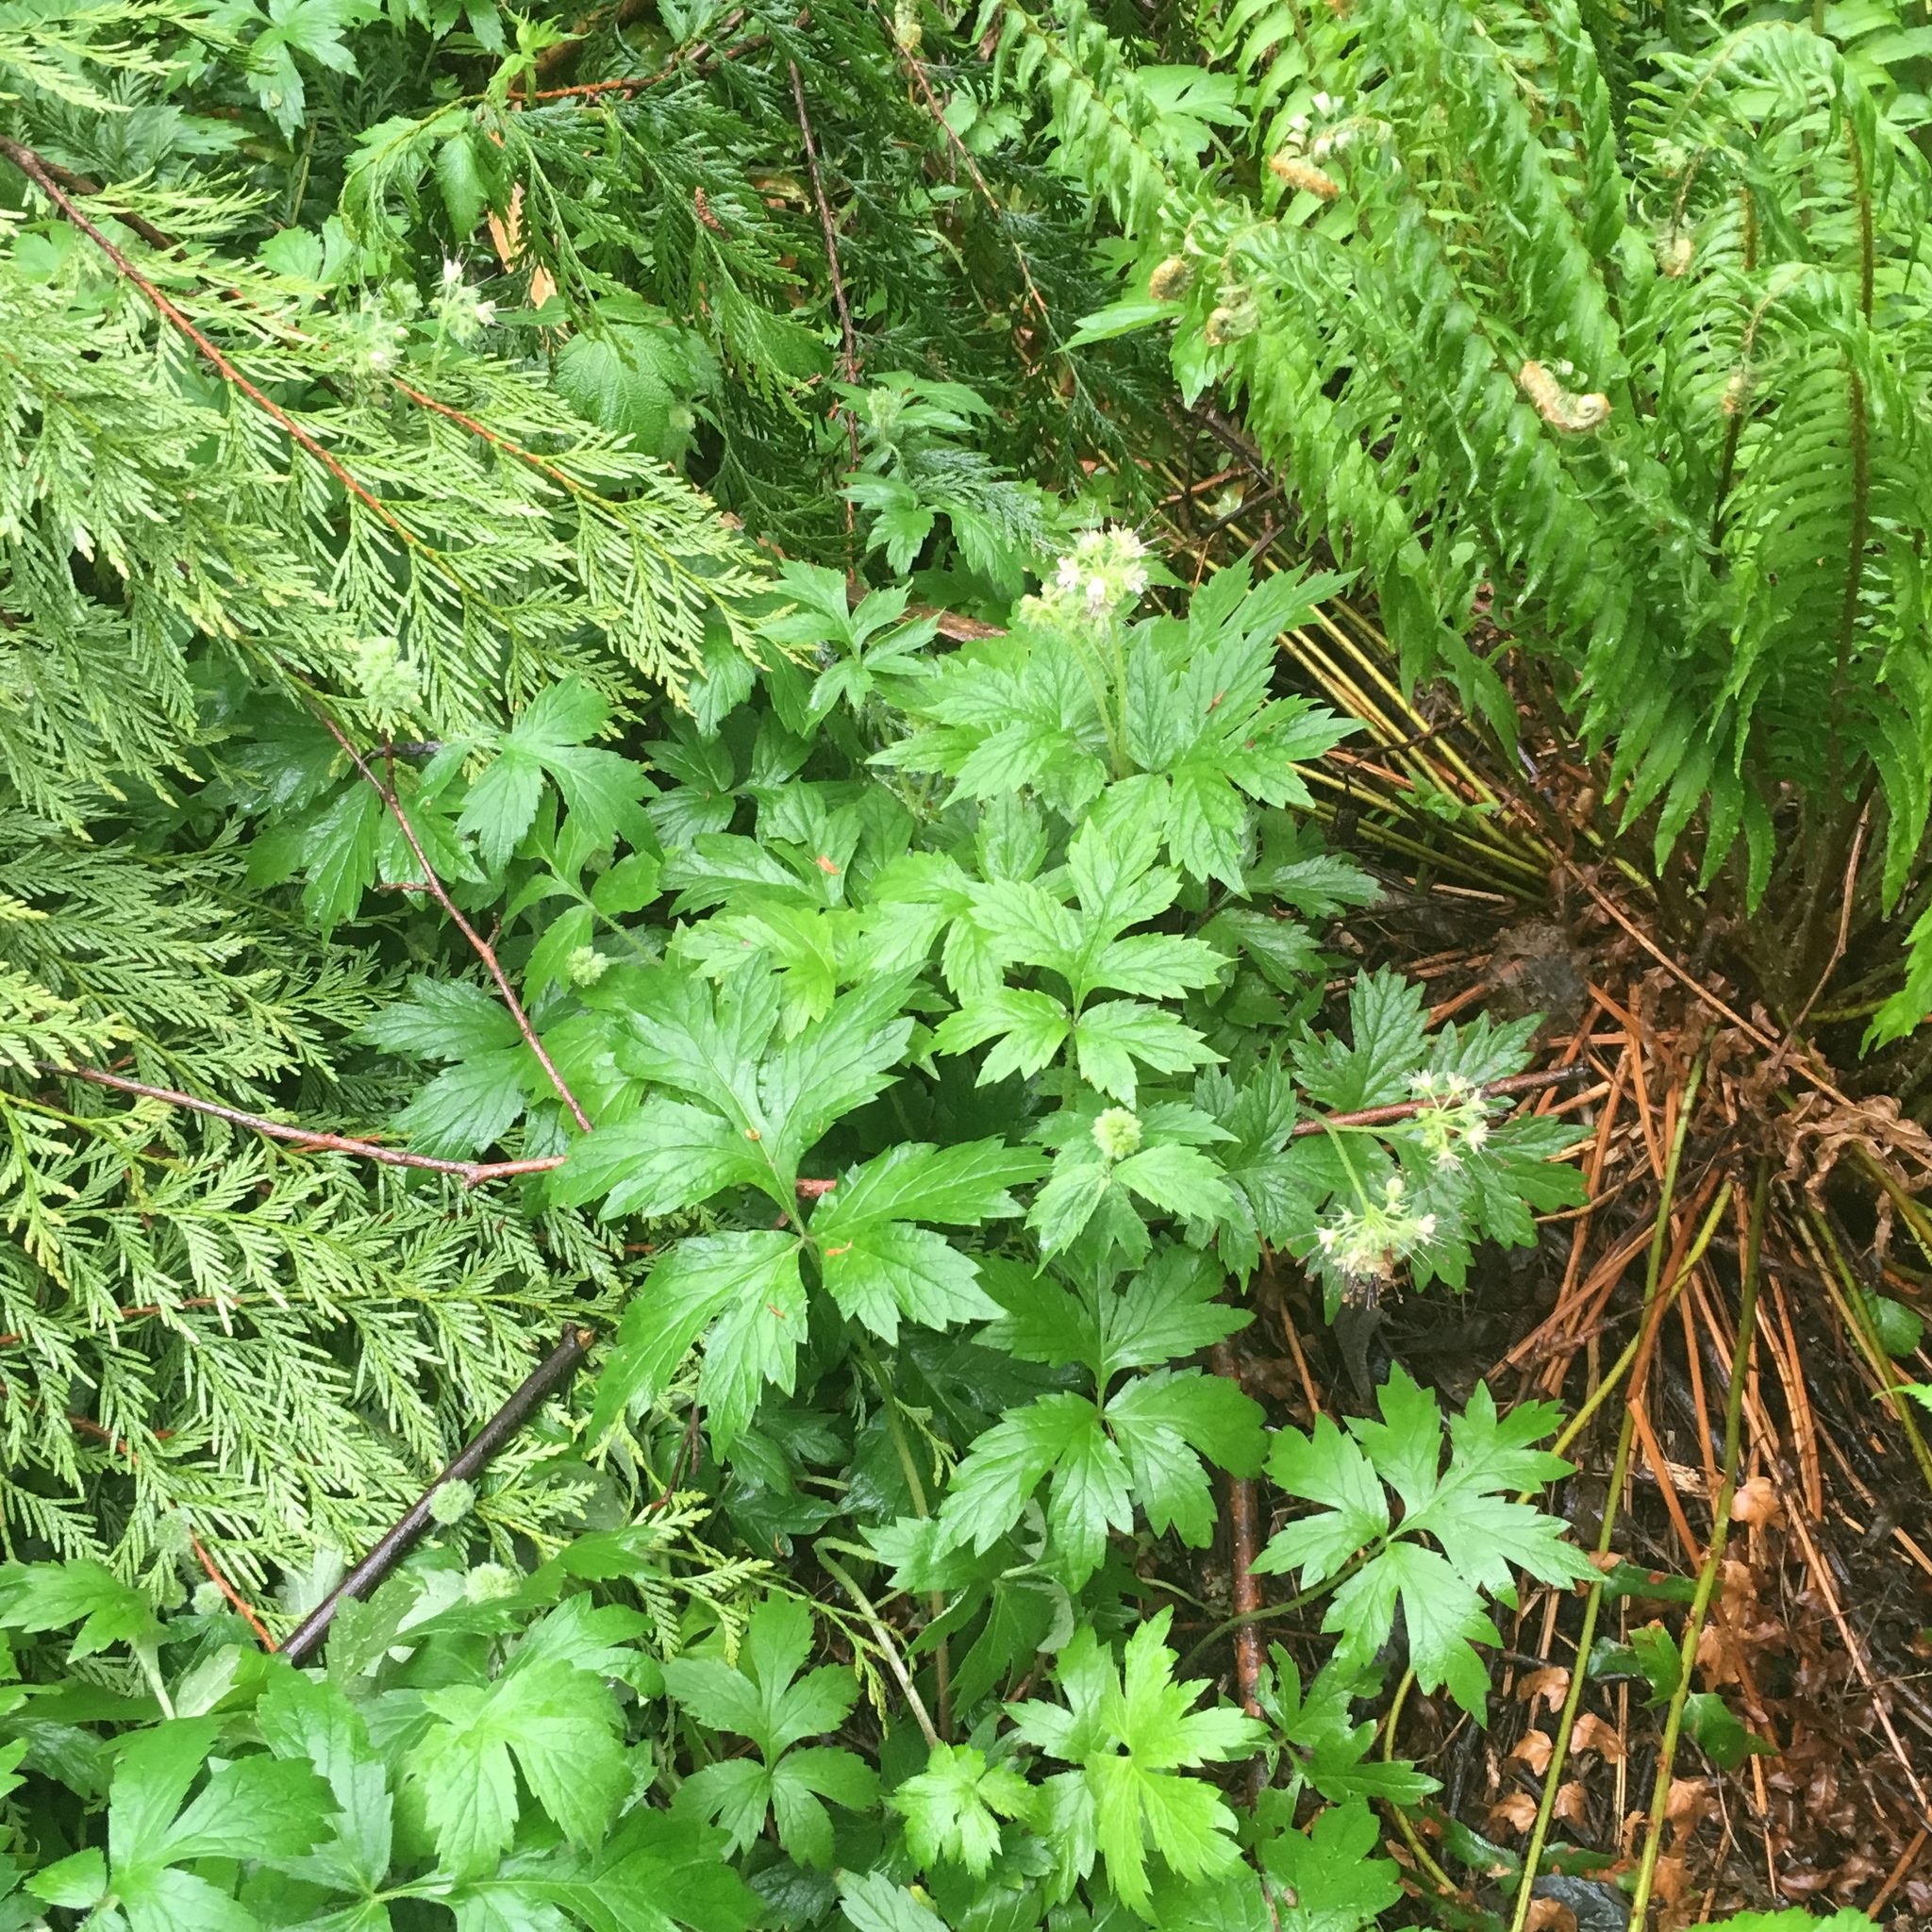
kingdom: Plantae
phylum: Tracheophyta
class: Magnoliopsida
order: Boraginales
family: Hydrophyllaceae
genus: Hydrophyllum
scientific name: Hydrophyllum tenuipes
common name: Pacific waterleaf
